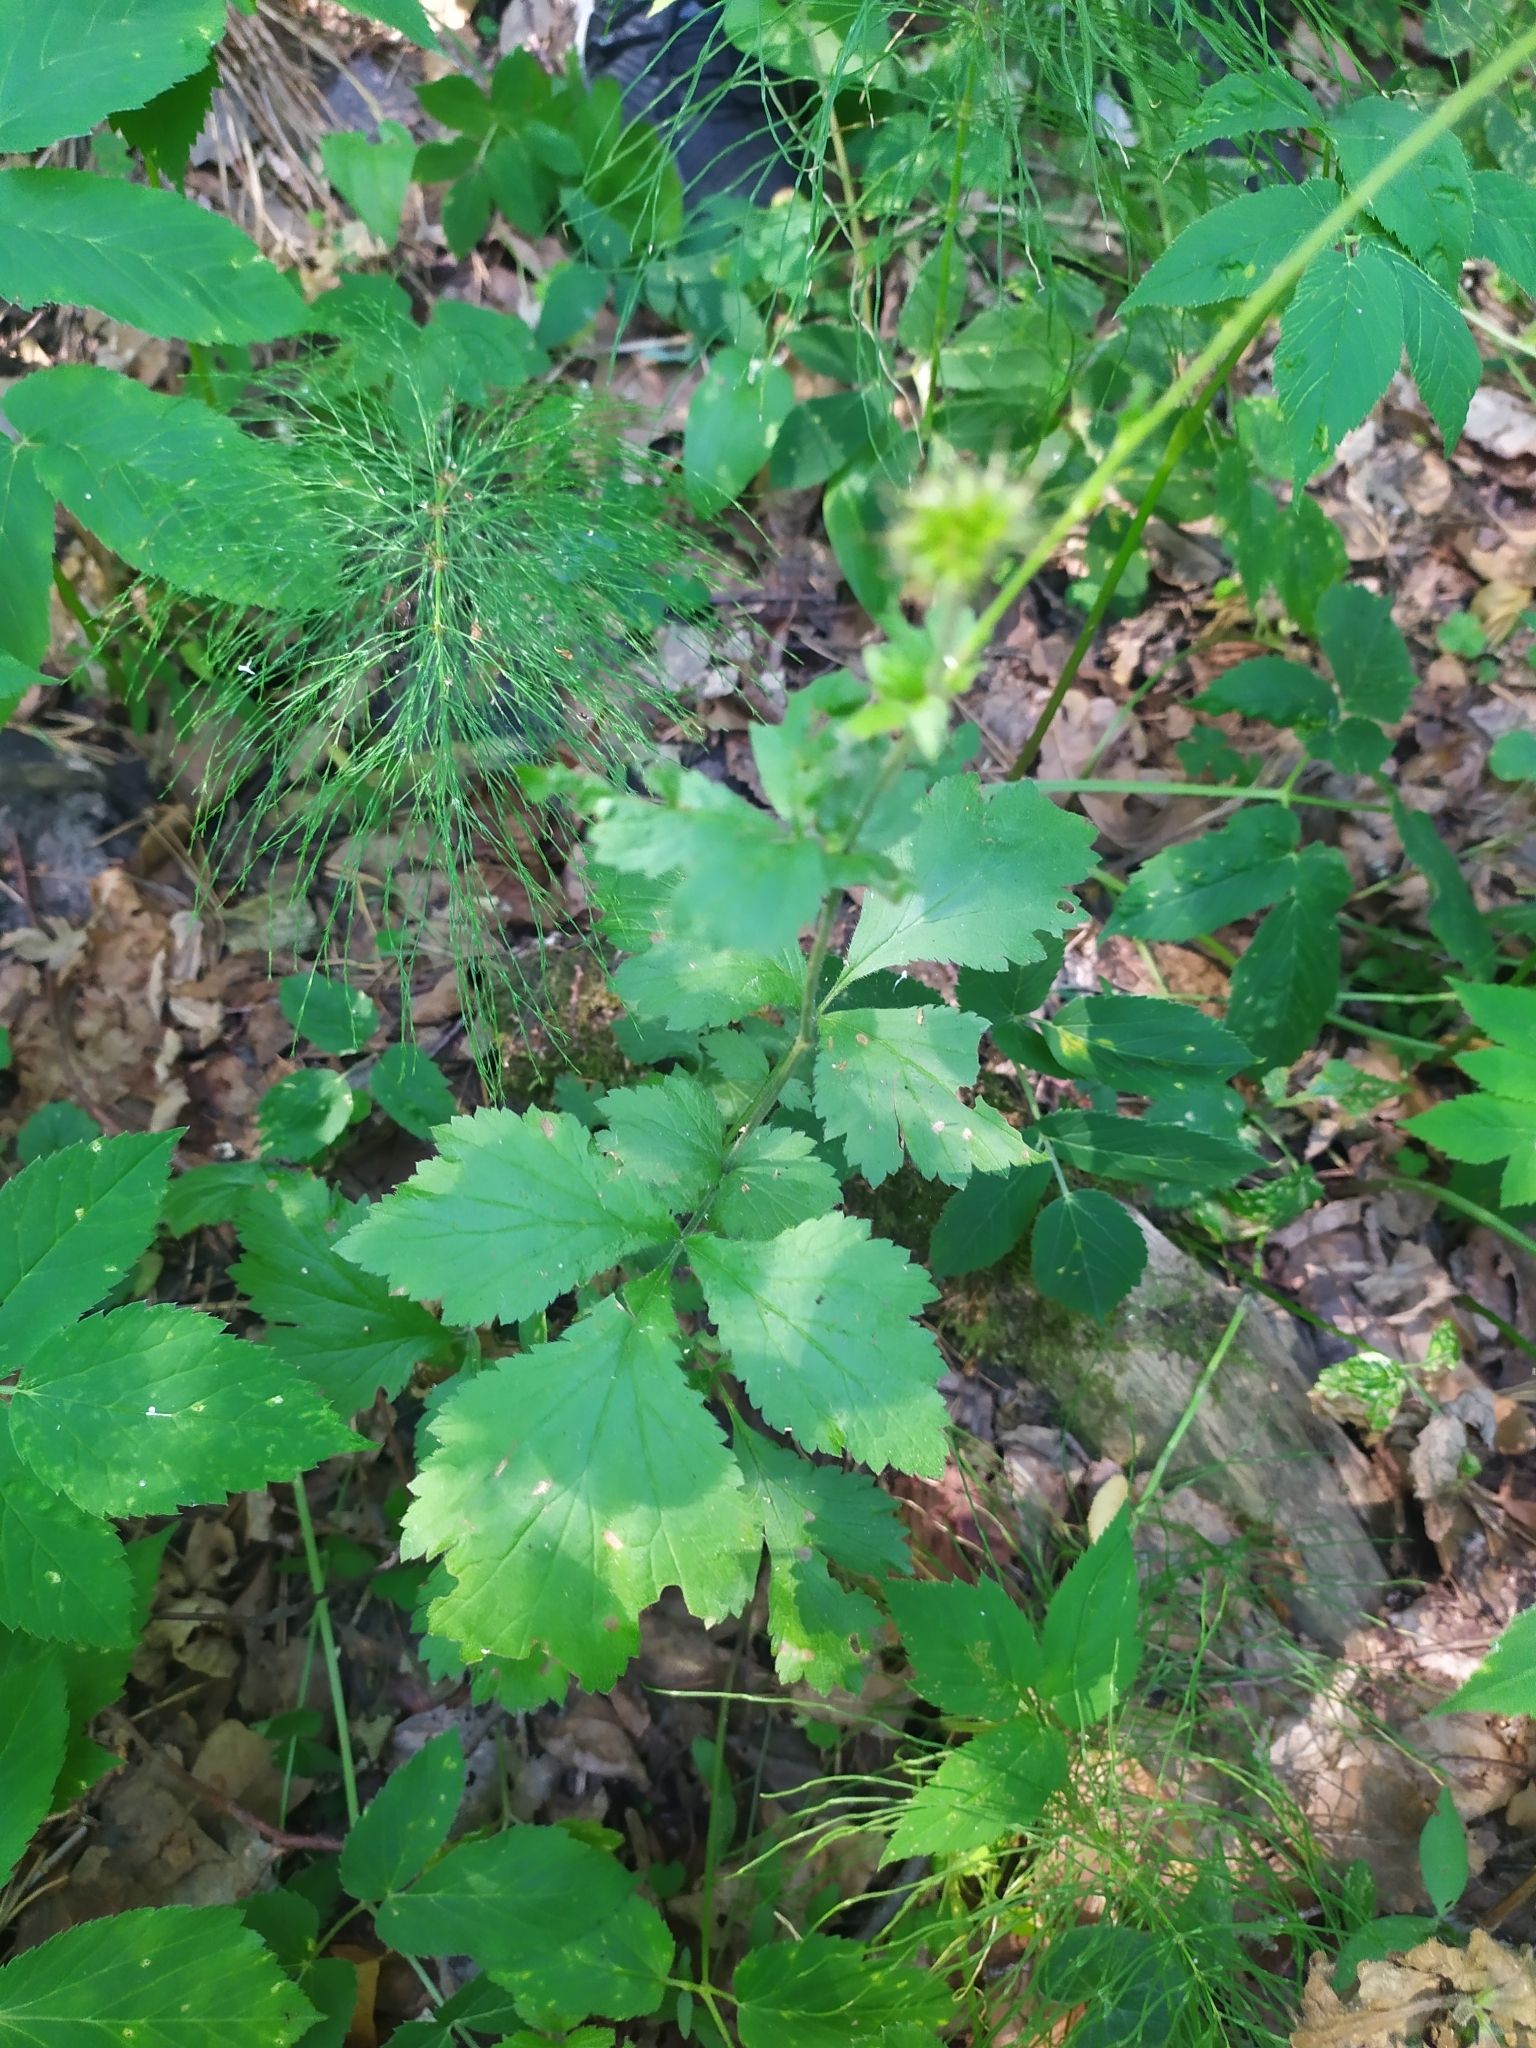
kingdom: Plantae
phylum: Tracheophyta
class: Magnoliopsida
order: Rosales
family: Rosaceae
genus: Geum
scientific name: Geum urbanum
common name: Wood avens
